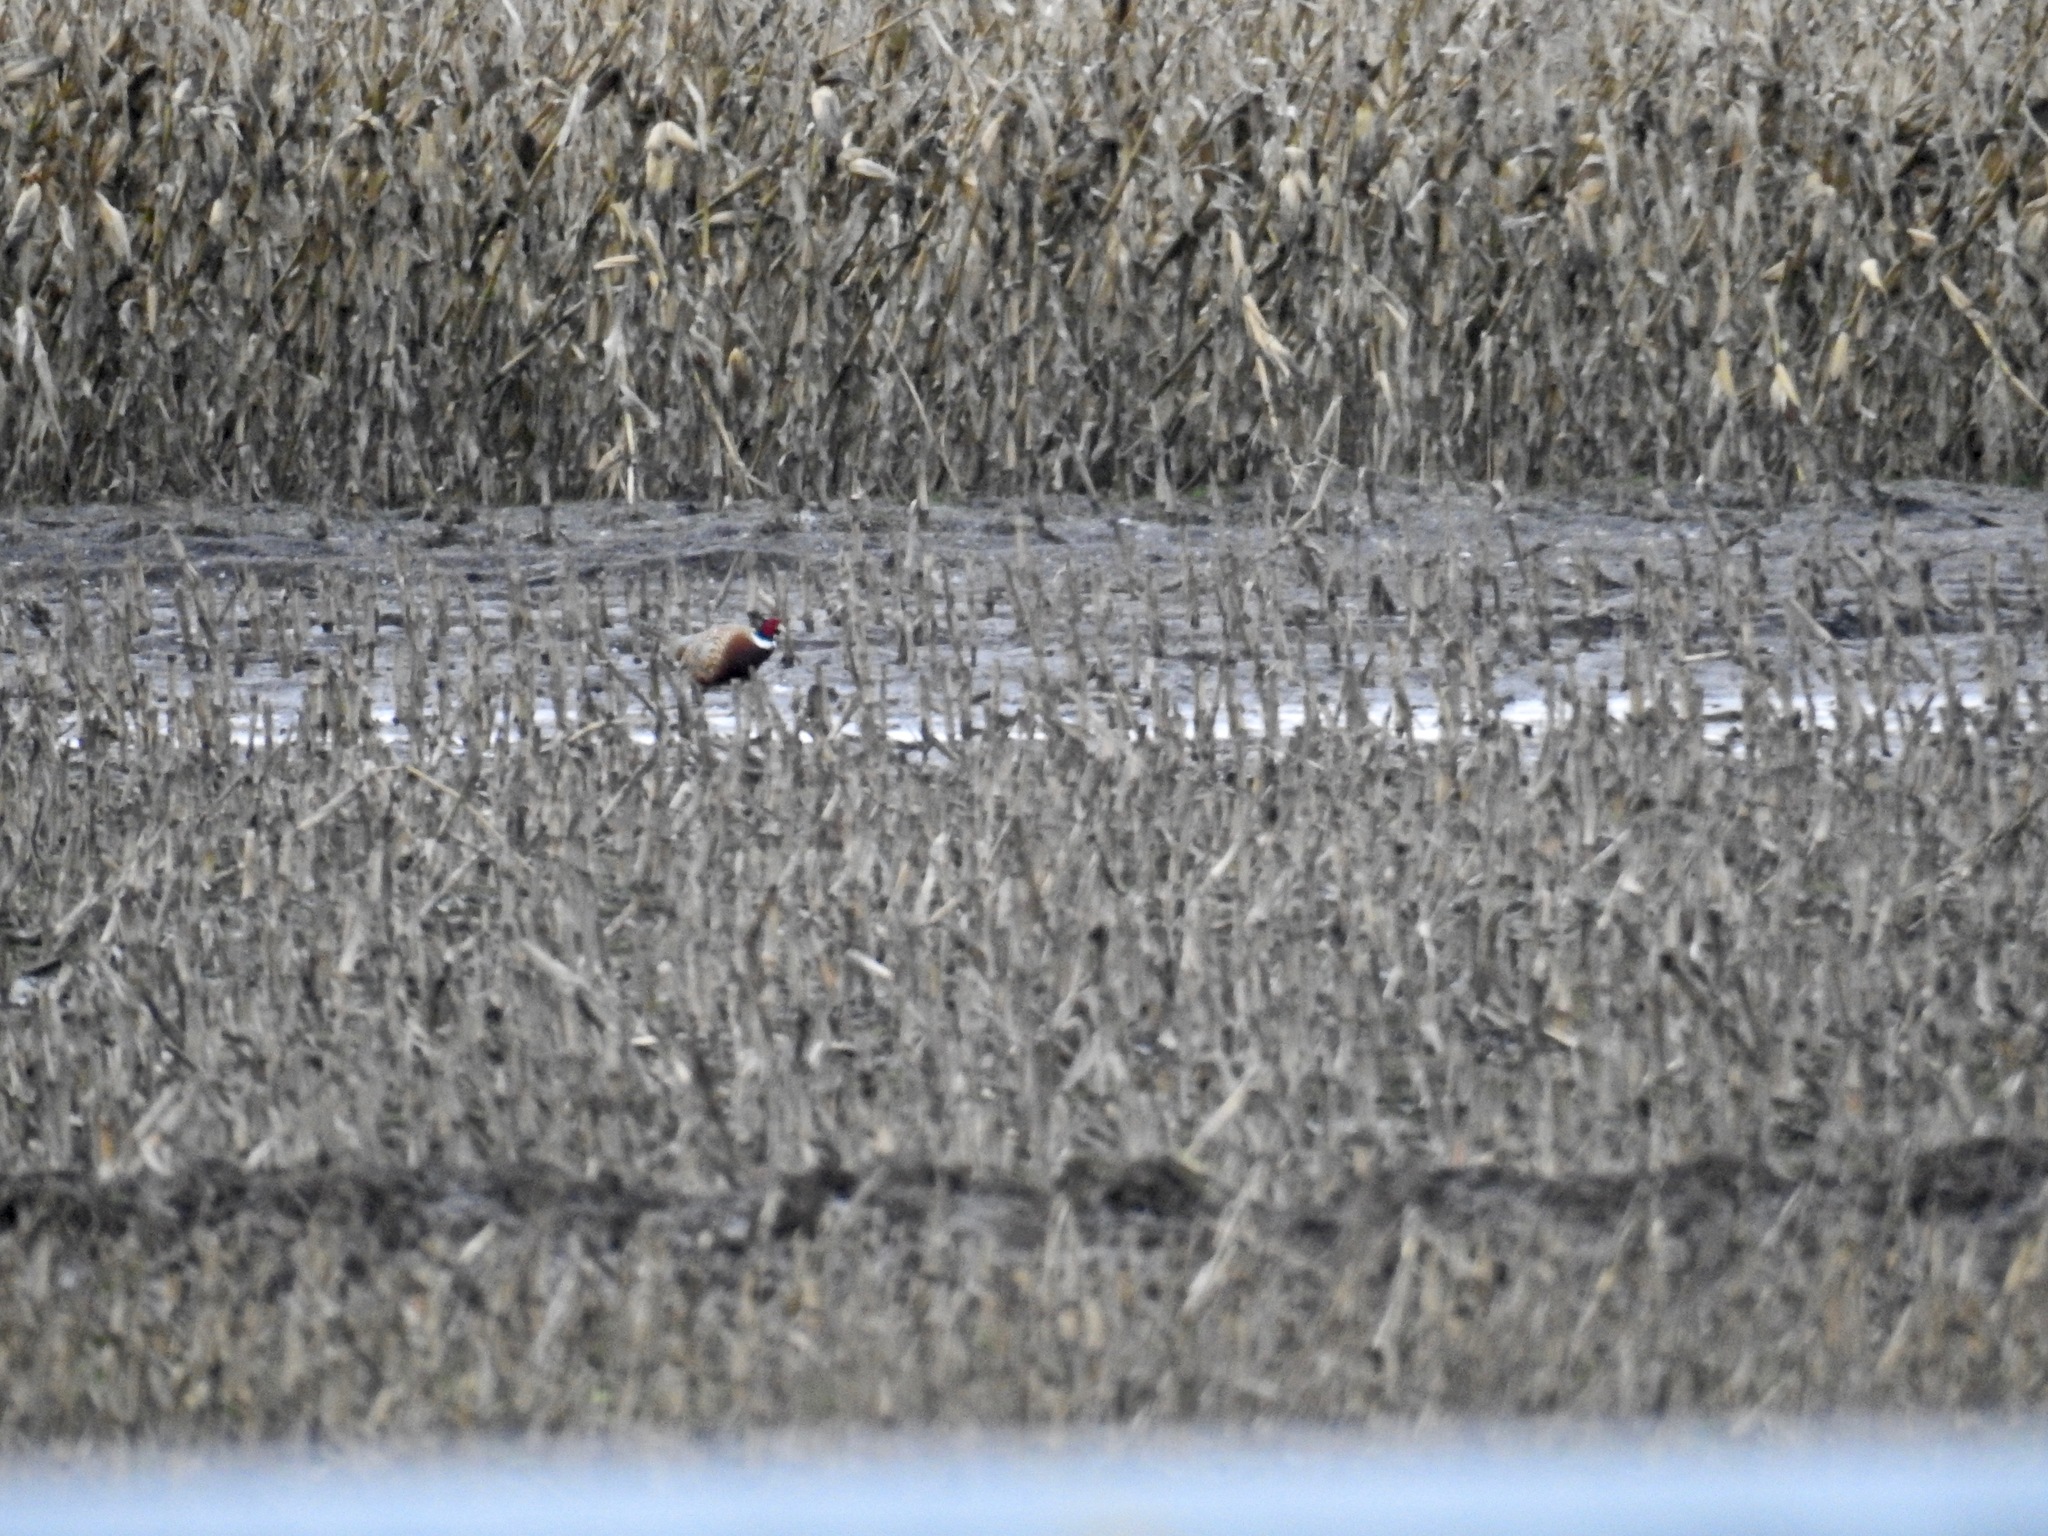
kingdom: Animalia
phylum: Chordata
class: Aves
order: Galliformes
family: Phasianidae
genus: Phasianus
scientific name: Phasianus colchicus
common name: Common pheasant
